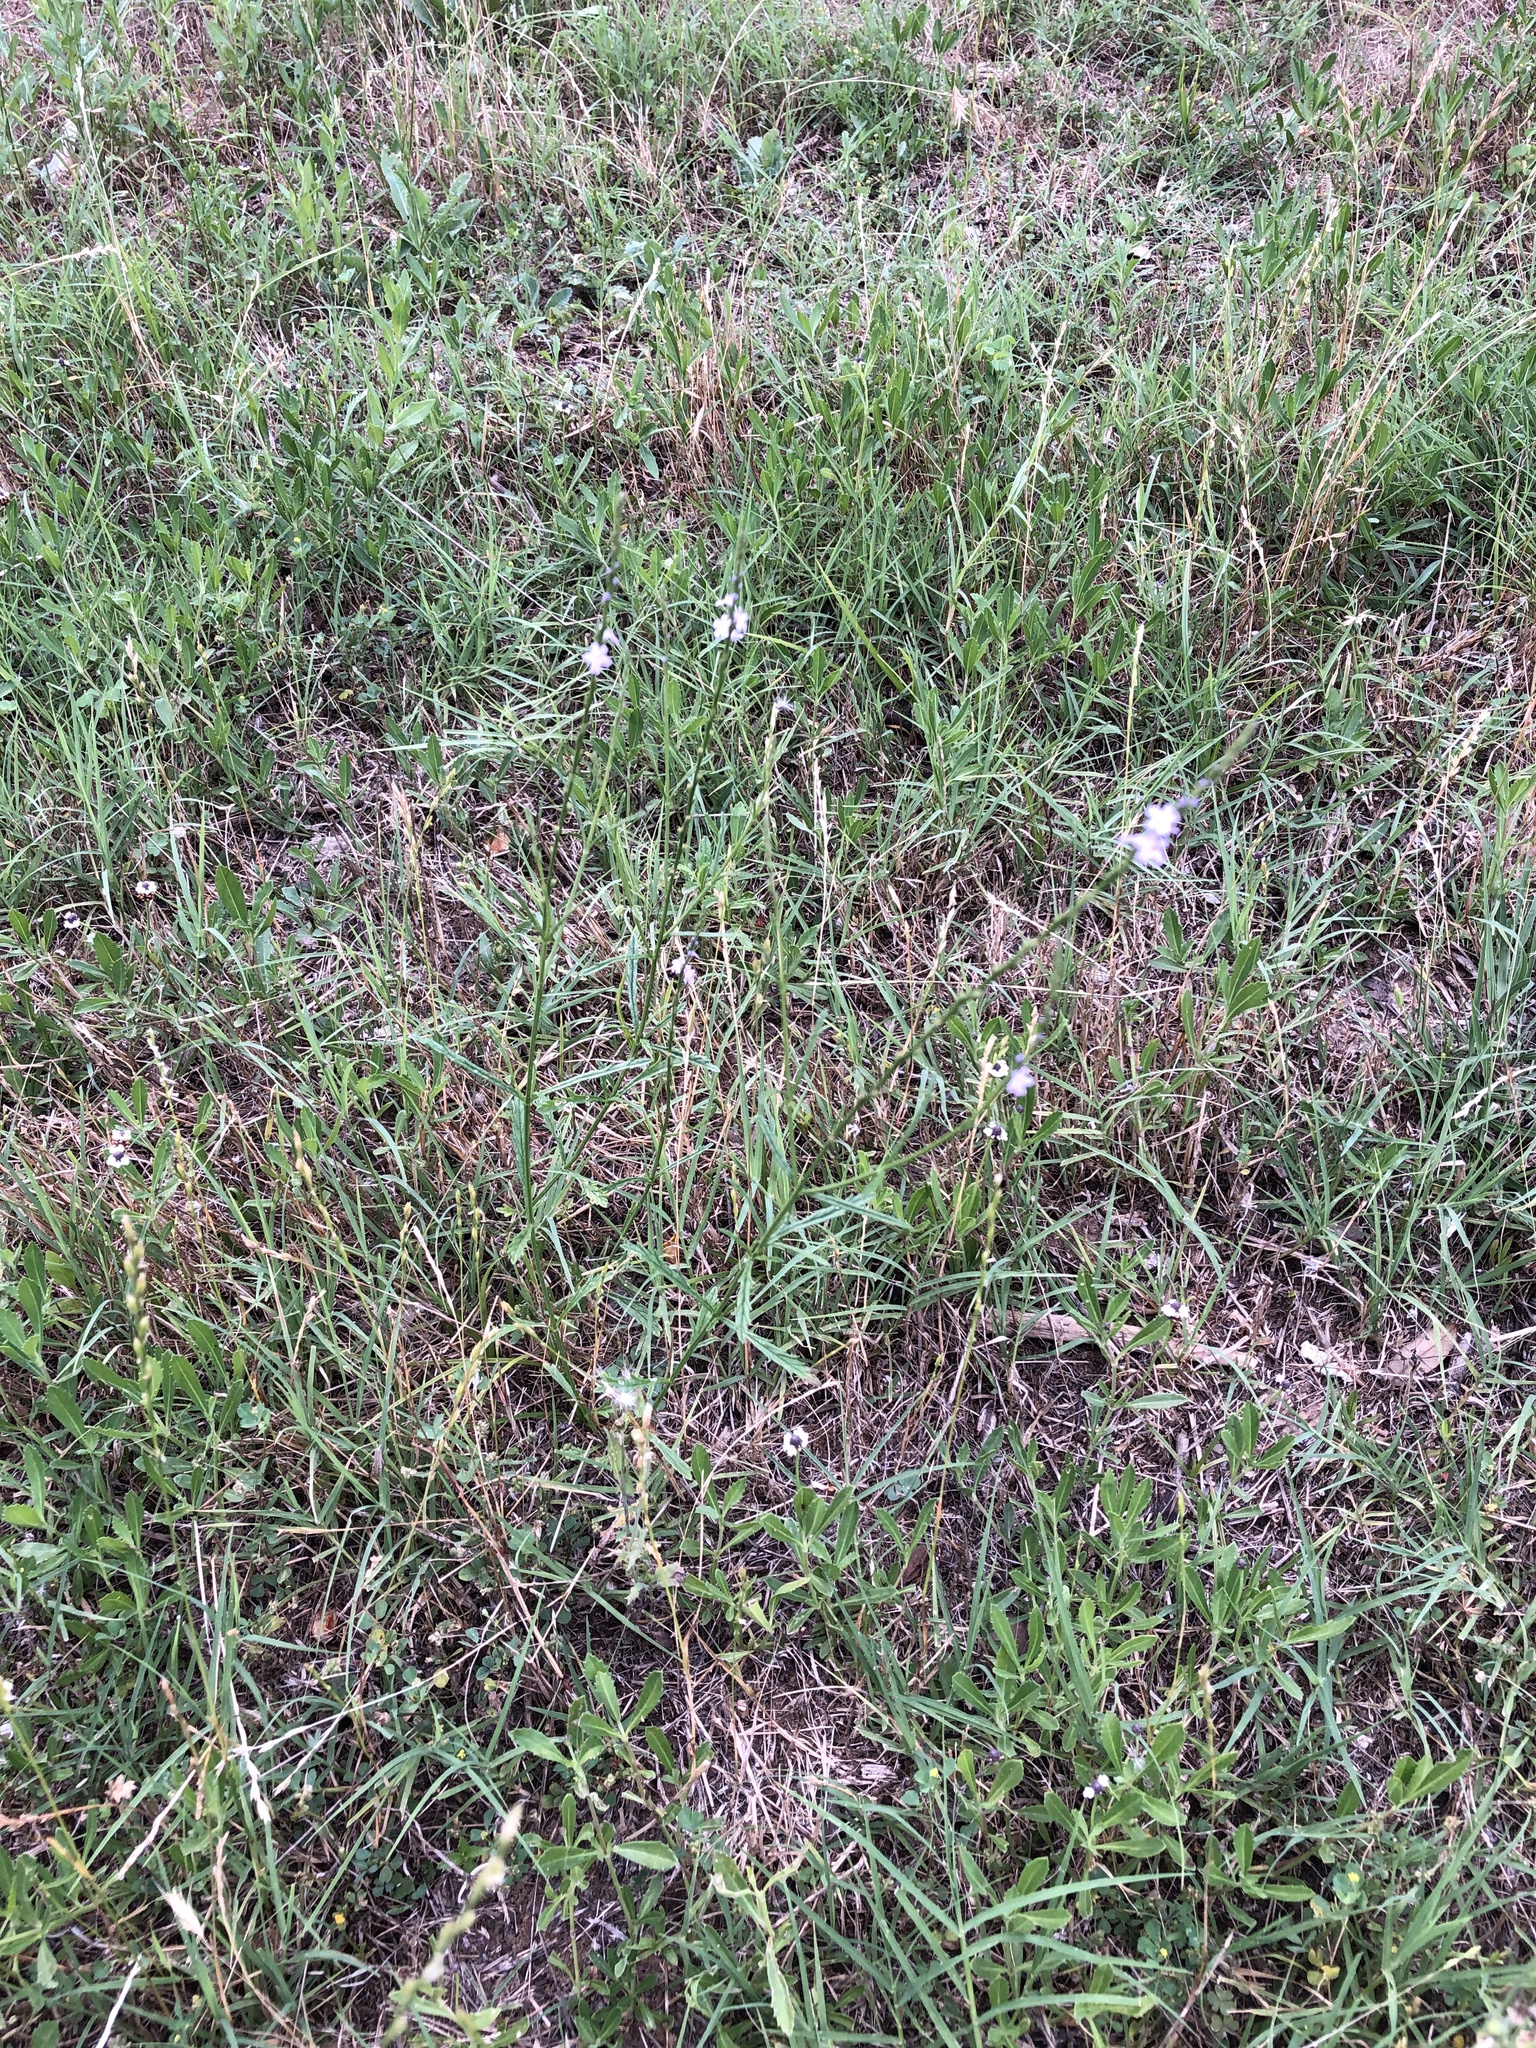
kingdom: Plantae
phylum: Tracheophyta
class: Magnoliopsida
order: Lamiales
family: Verbenaceae
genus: Verbena
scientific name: Verbena halei
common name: Texas vervain
